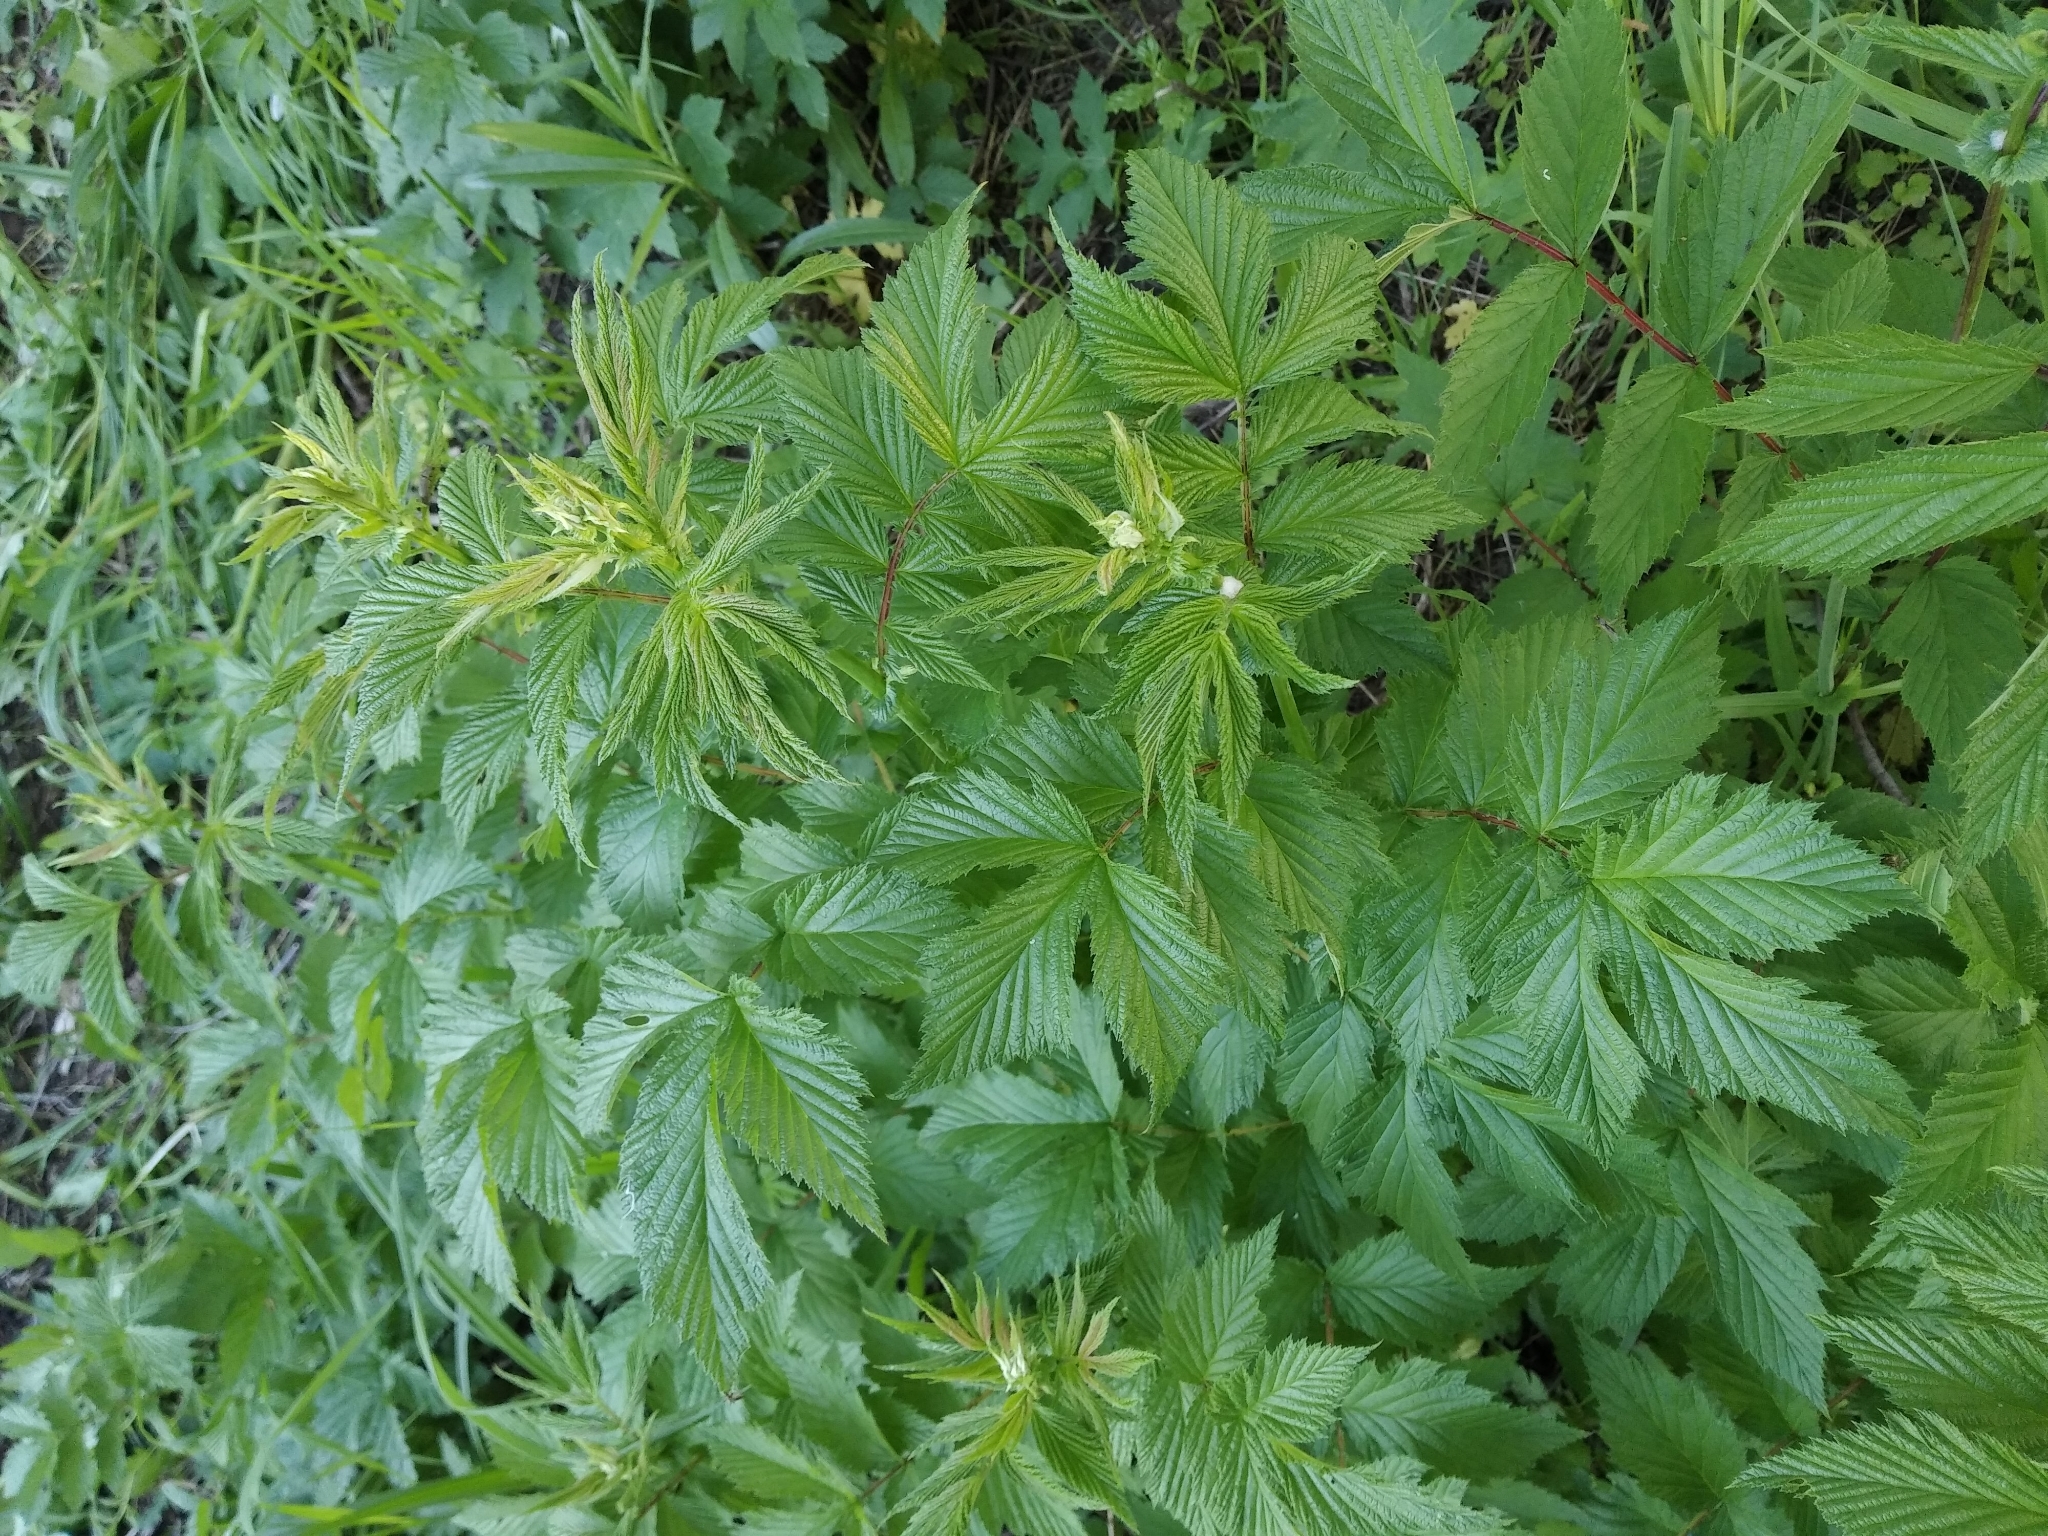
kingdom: Plantae
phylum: Tracheophyta
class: Magnoliopsida
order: Rosales
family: Rosaceae
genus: Filipendula
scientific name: Filipendula ulmaria
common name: Meadowsweet
